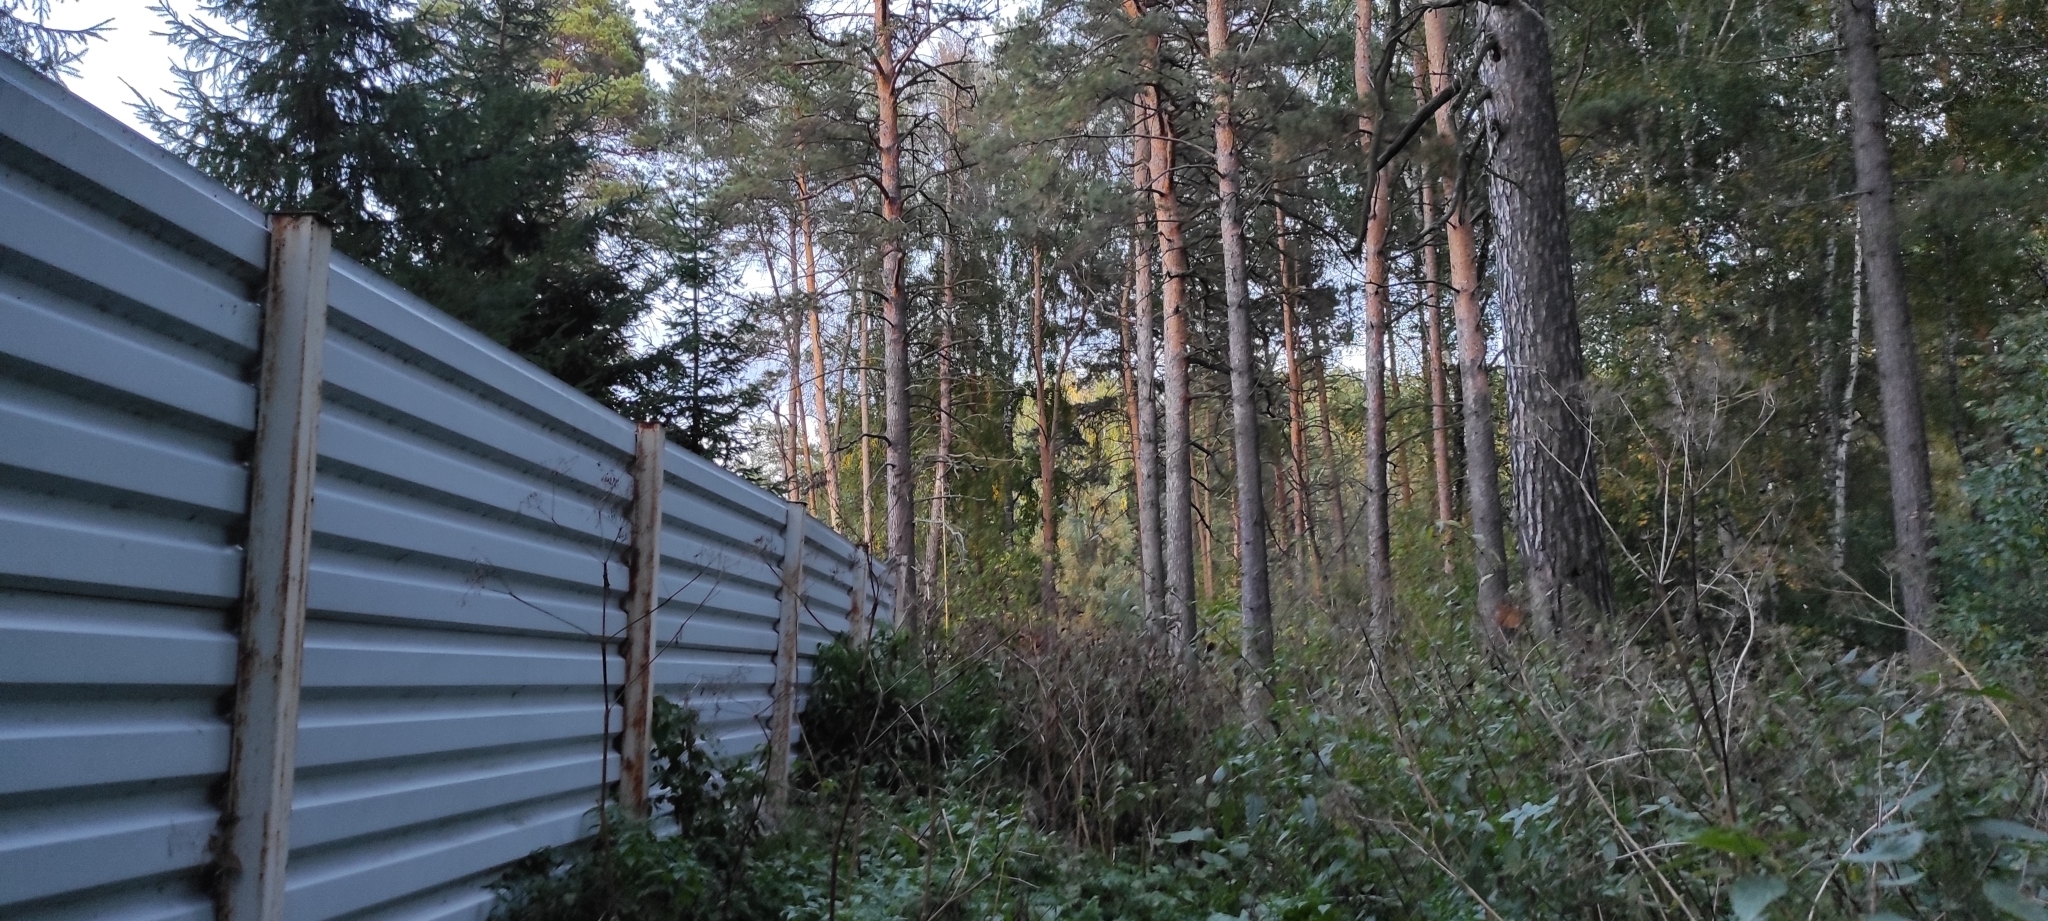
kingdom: Plantae
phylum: Tracheophyta
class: Pinopsida
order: Pinales
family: Pinaceae
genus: Pinus
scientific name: Pinus sylvestris
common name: Scots pine
